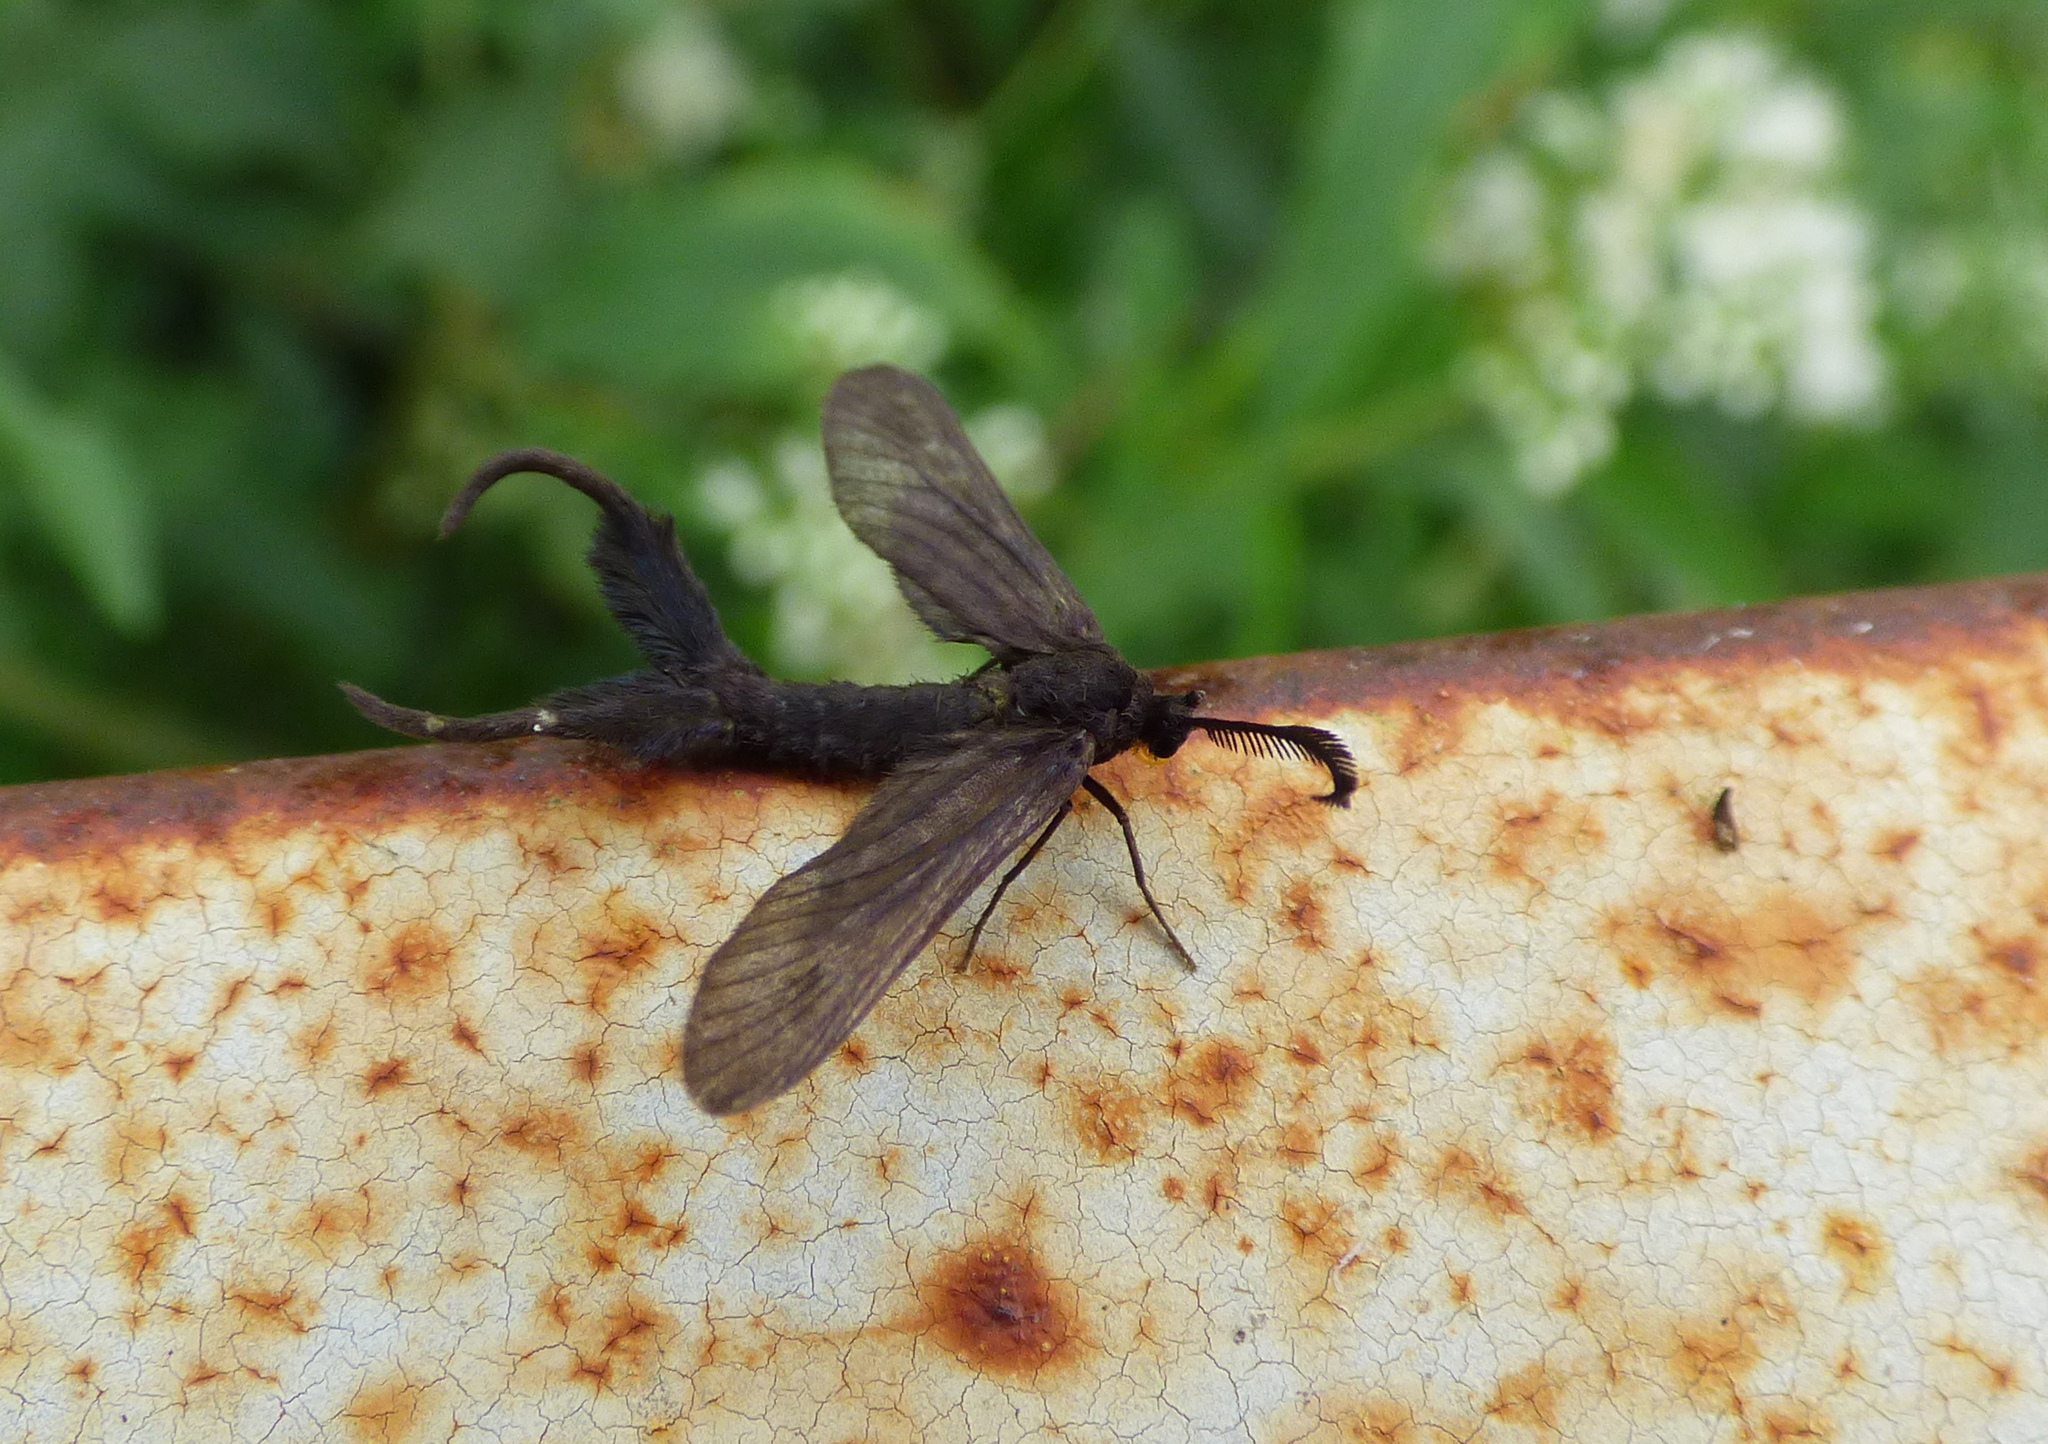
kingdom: Animalia
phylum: Arthropoda
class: Insecta
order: Lepidoptera
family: Zygaenidae
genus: Stylura
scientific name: Stylura forficula
